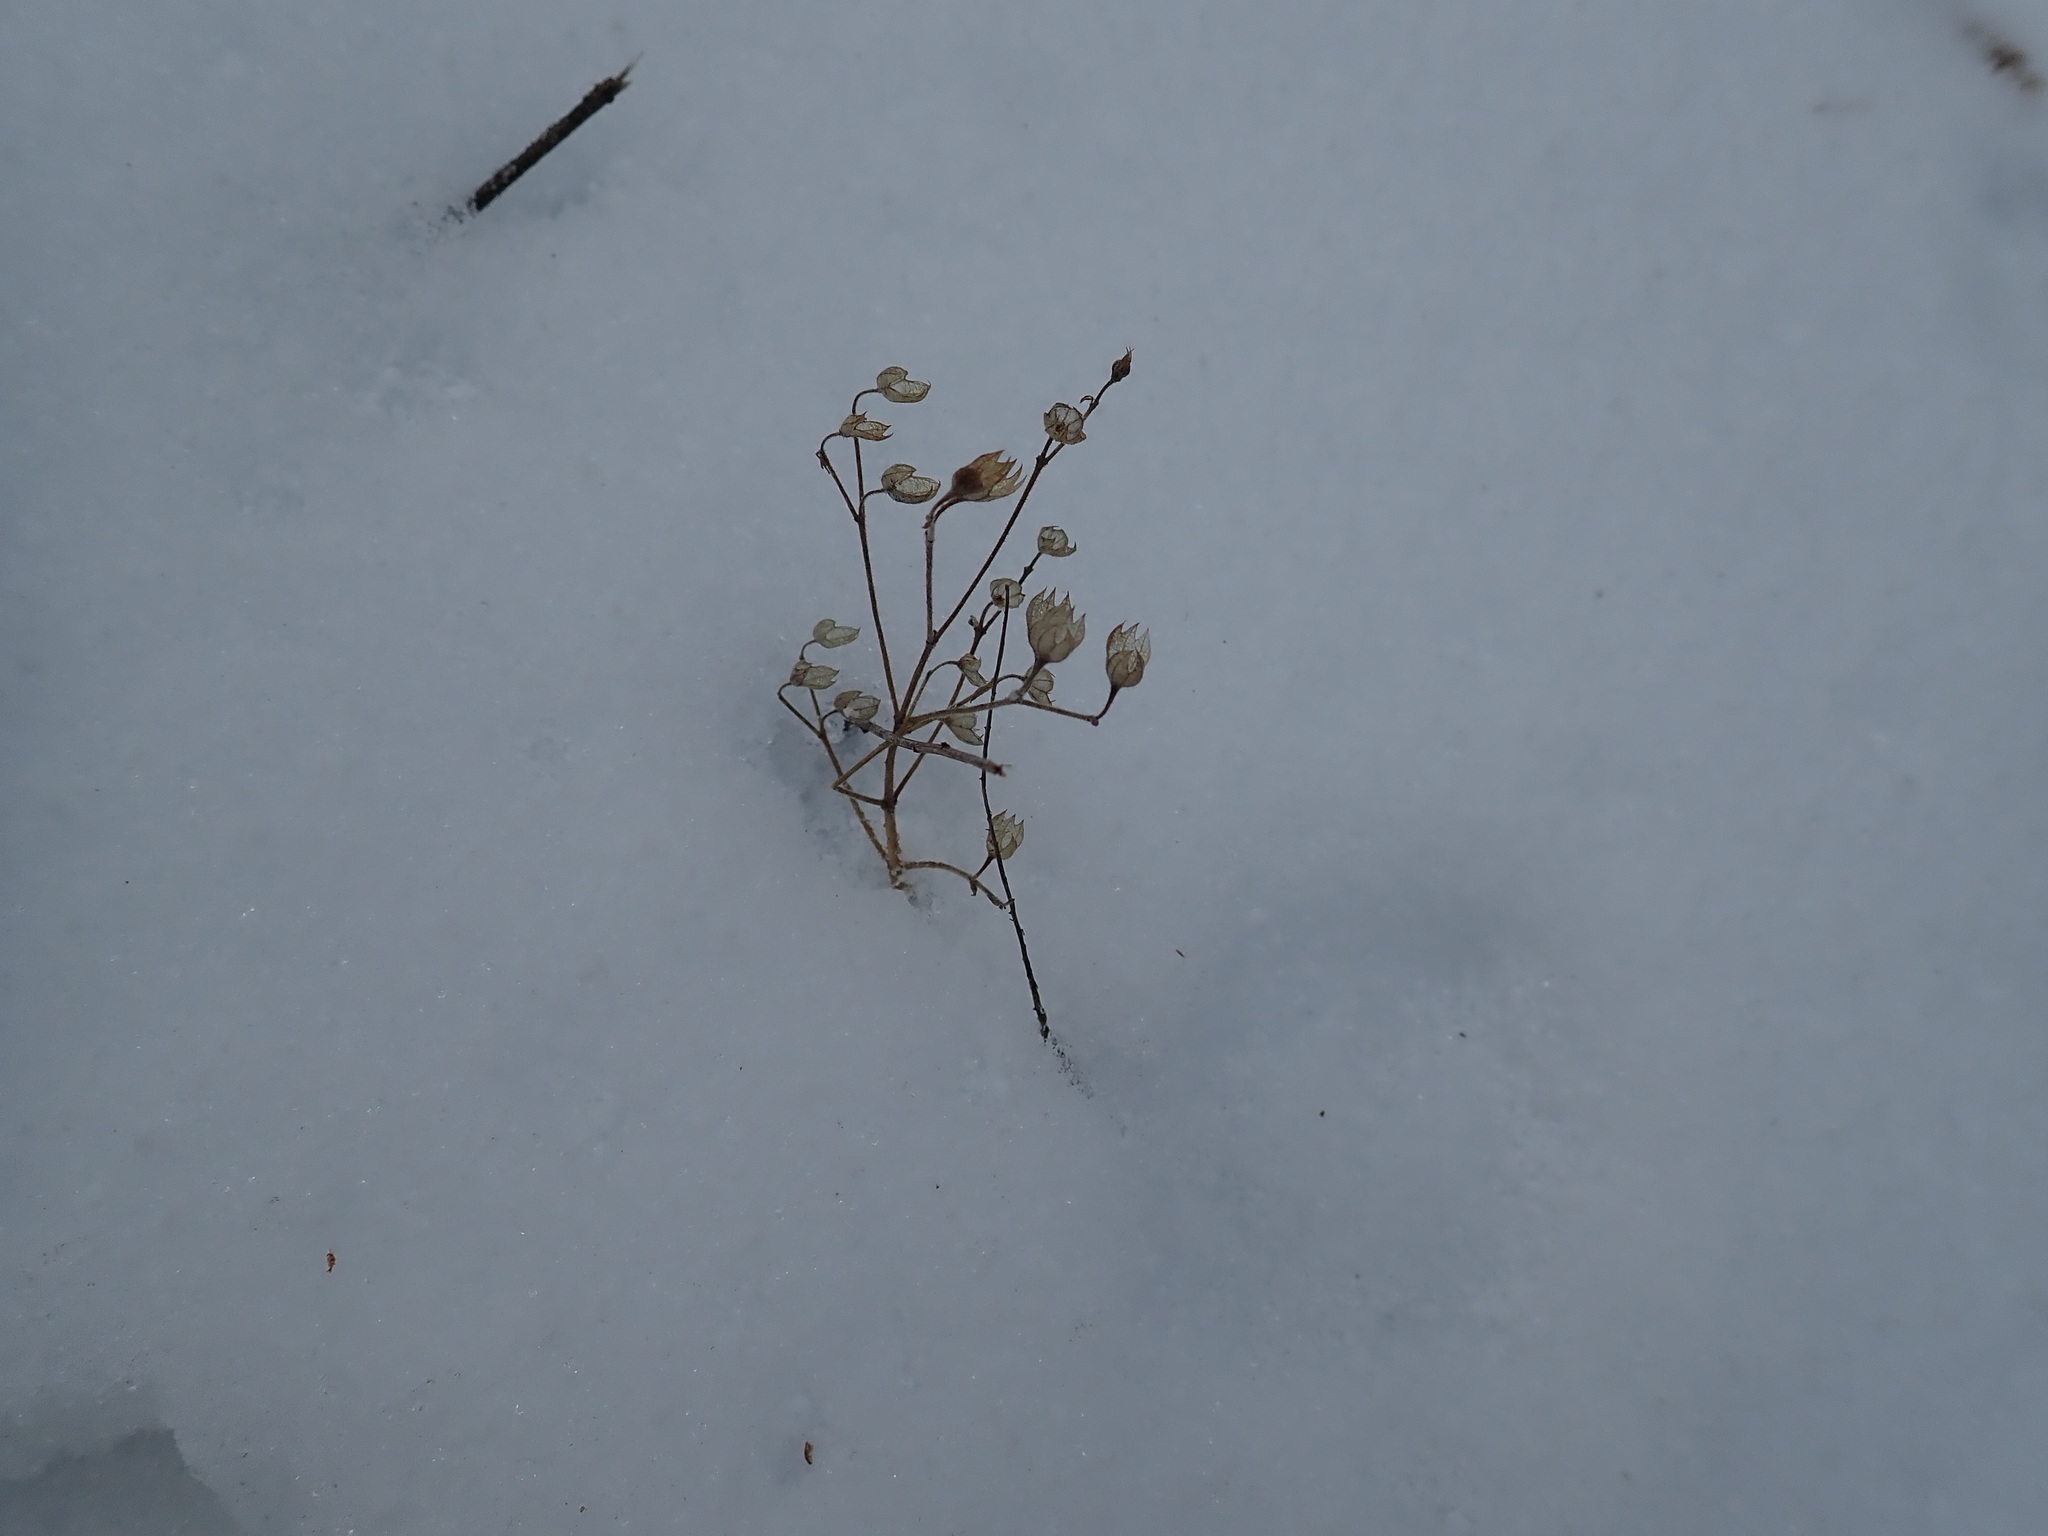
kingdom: Plantae
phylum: Tracheophyta
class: Magnoliopsida
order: Lamiales
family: Lamiaceae
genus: Trichostema
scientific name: Trichostema dichotomum
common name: Bastard pennyroyal
